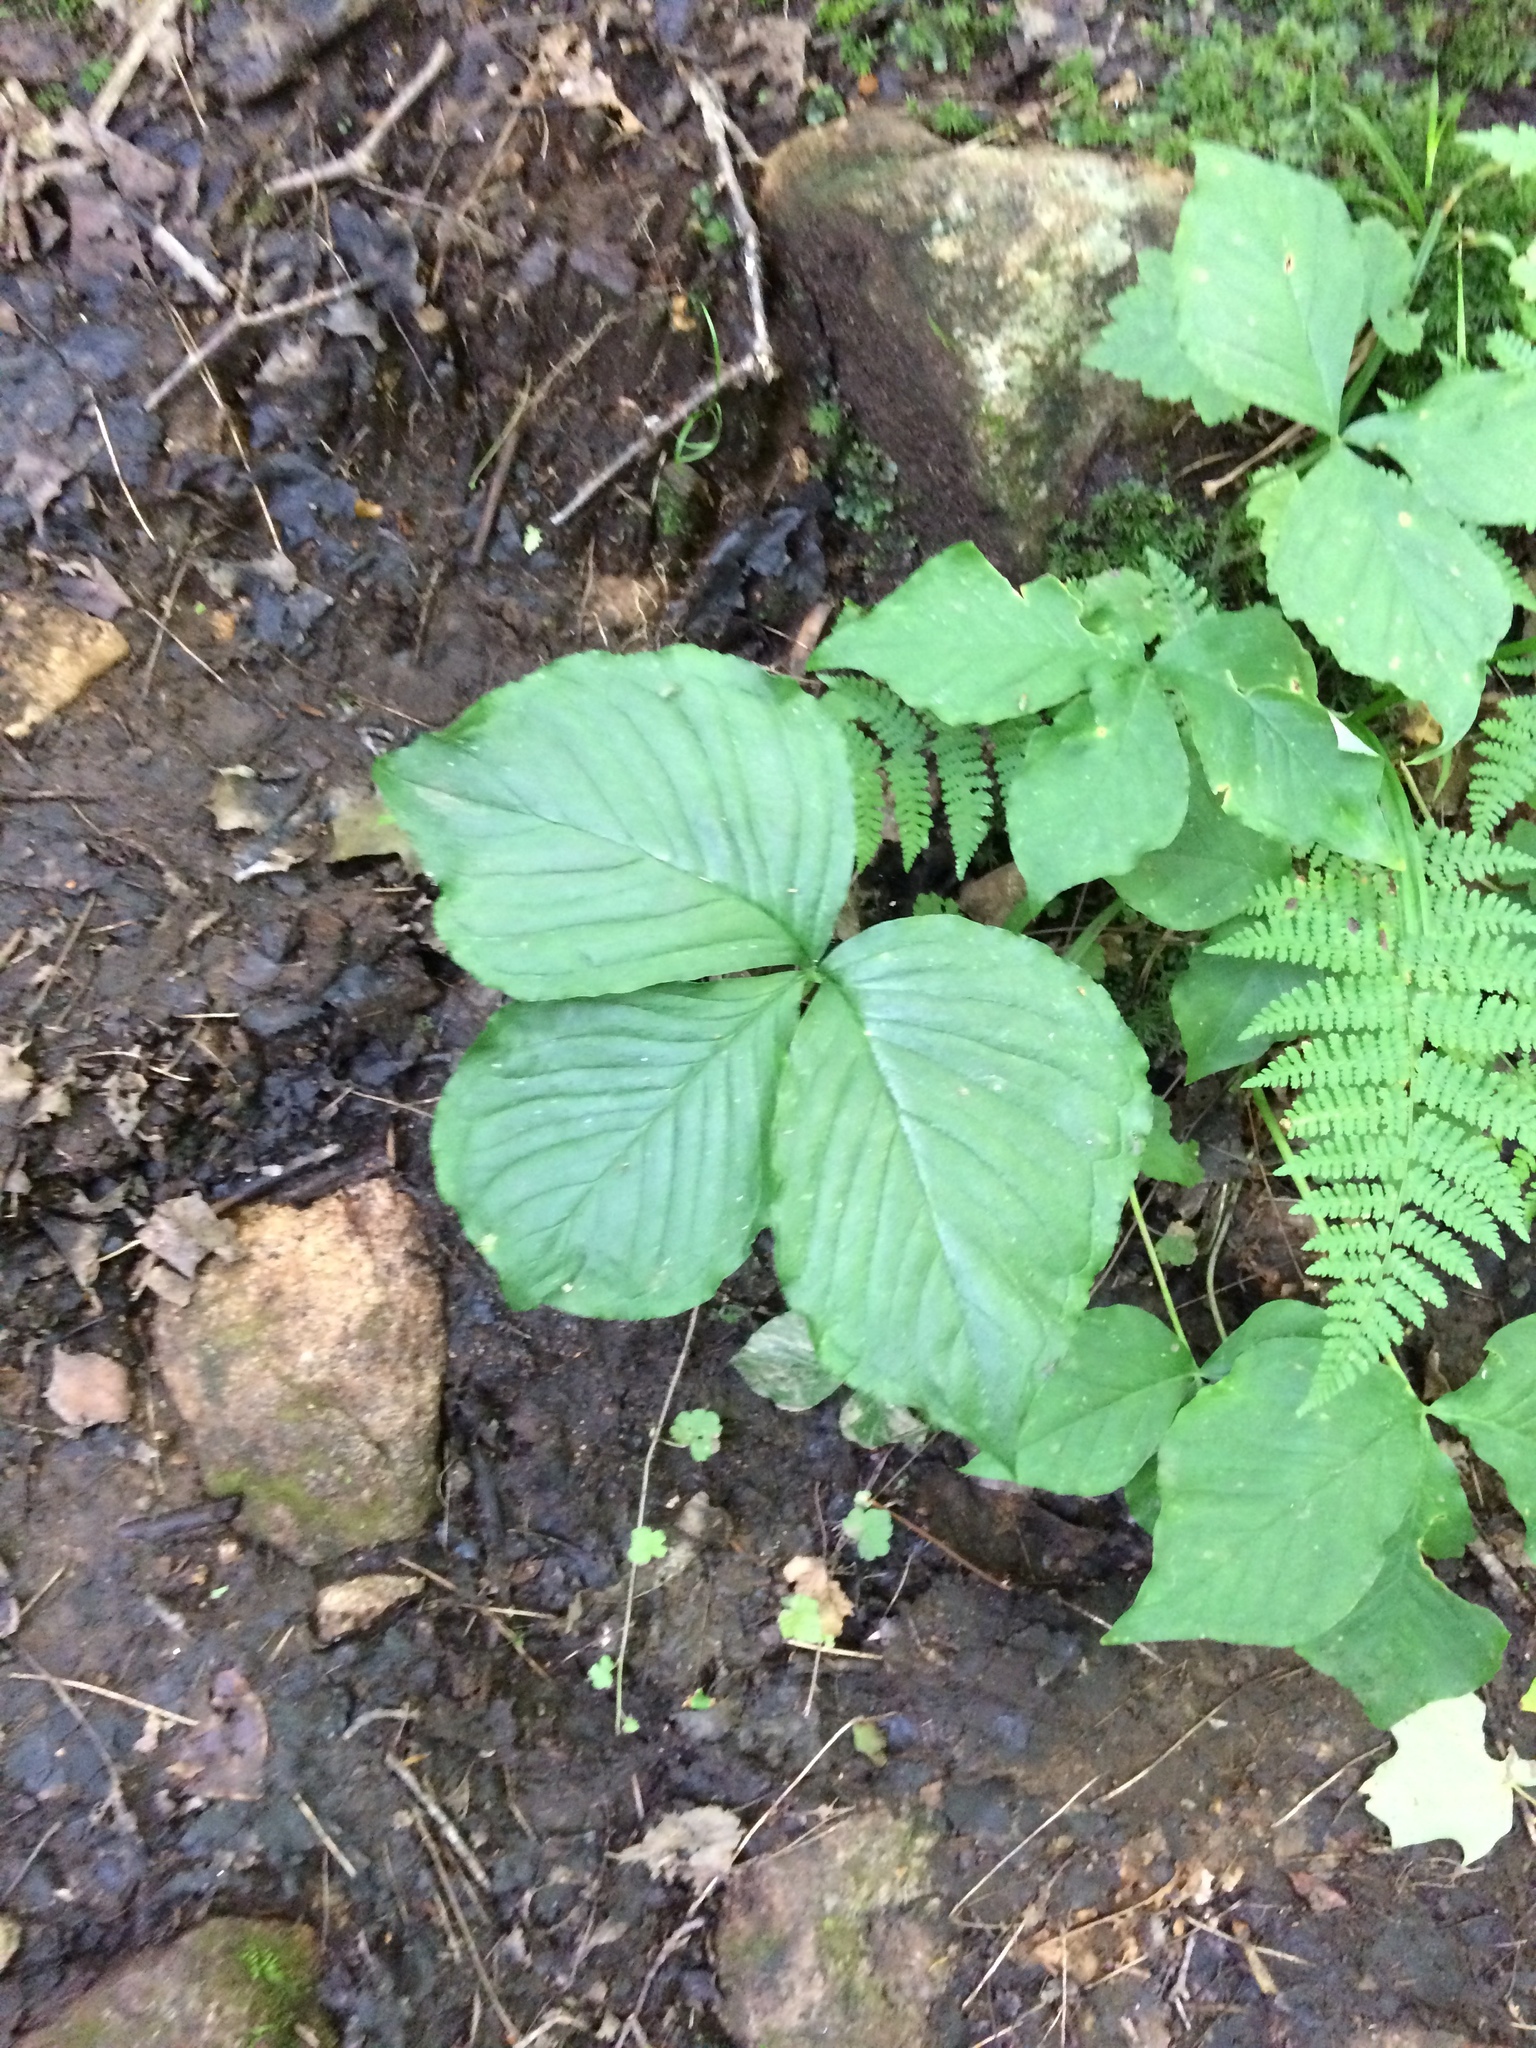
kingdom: Plantae
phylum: Tracheophyta
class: Liliopsida
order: Alismatales
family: Araceae
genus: Arisaema
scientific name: Arisaema triphyllum
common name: Jack-in-the-pulpit
